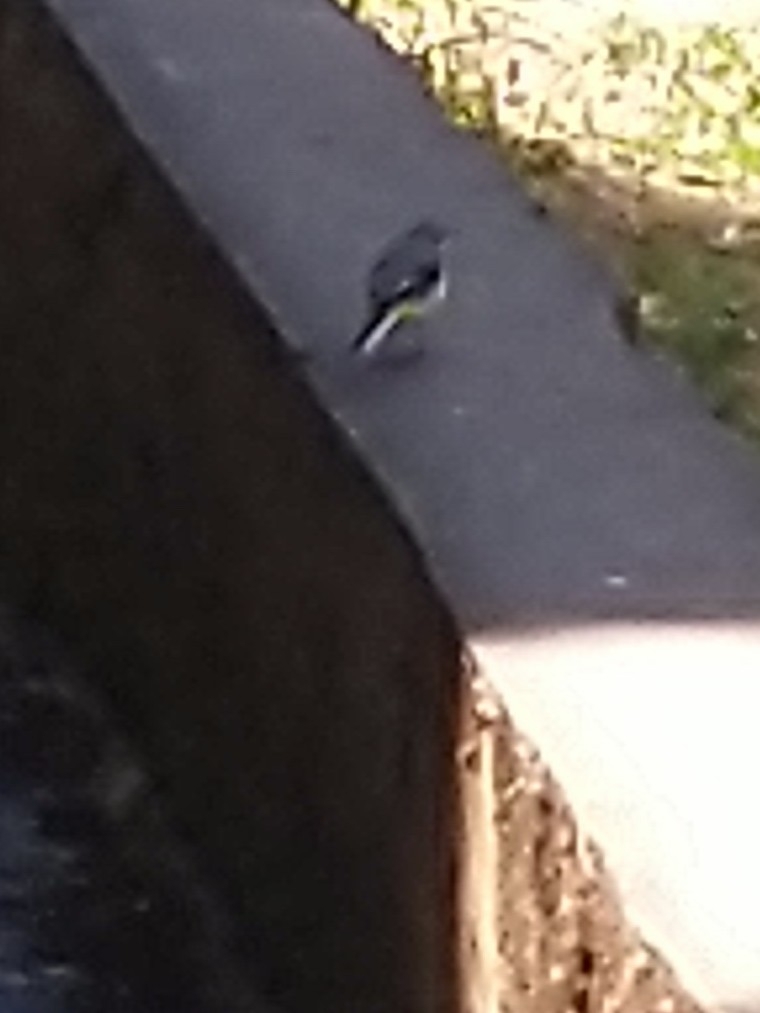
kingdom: Animalia
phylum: Chordata
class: Aves
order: Passeriformes
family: Motacillidae
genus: Motacilla
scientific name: Motacilla cinerea
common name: Grey wagtail
